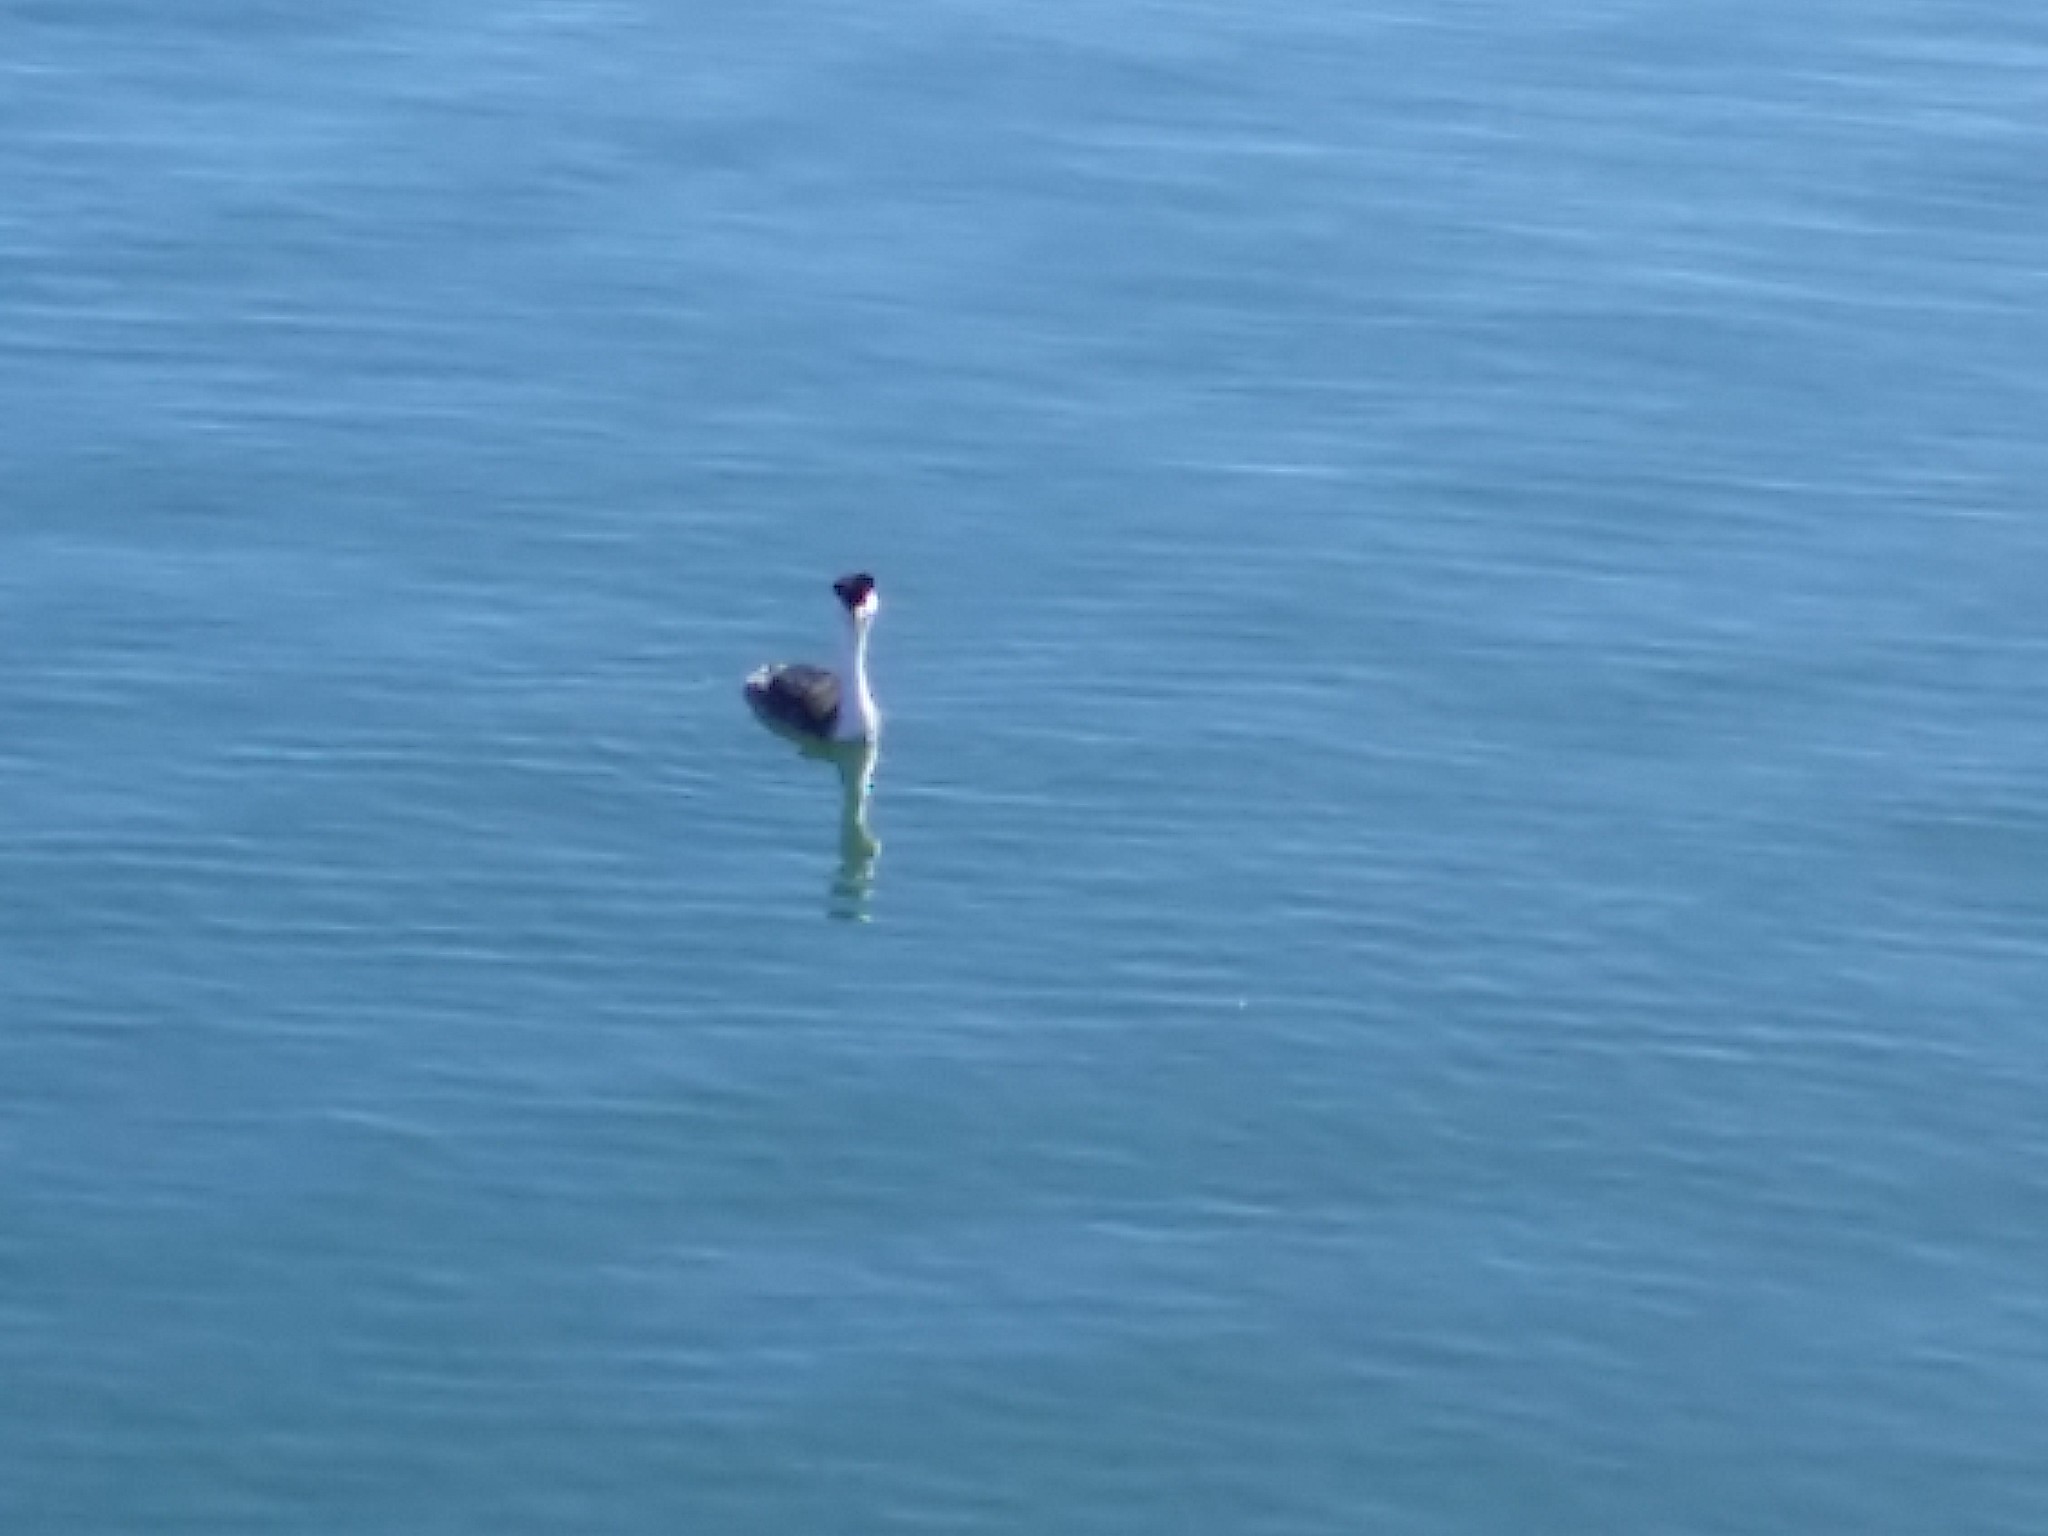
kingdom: Animalia
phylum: Chordata
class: Aves
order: Podicipediformes
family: Podicipedidae
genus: Aechmophorus
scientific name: Aechmophorus occidentalis
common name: Western grebe
